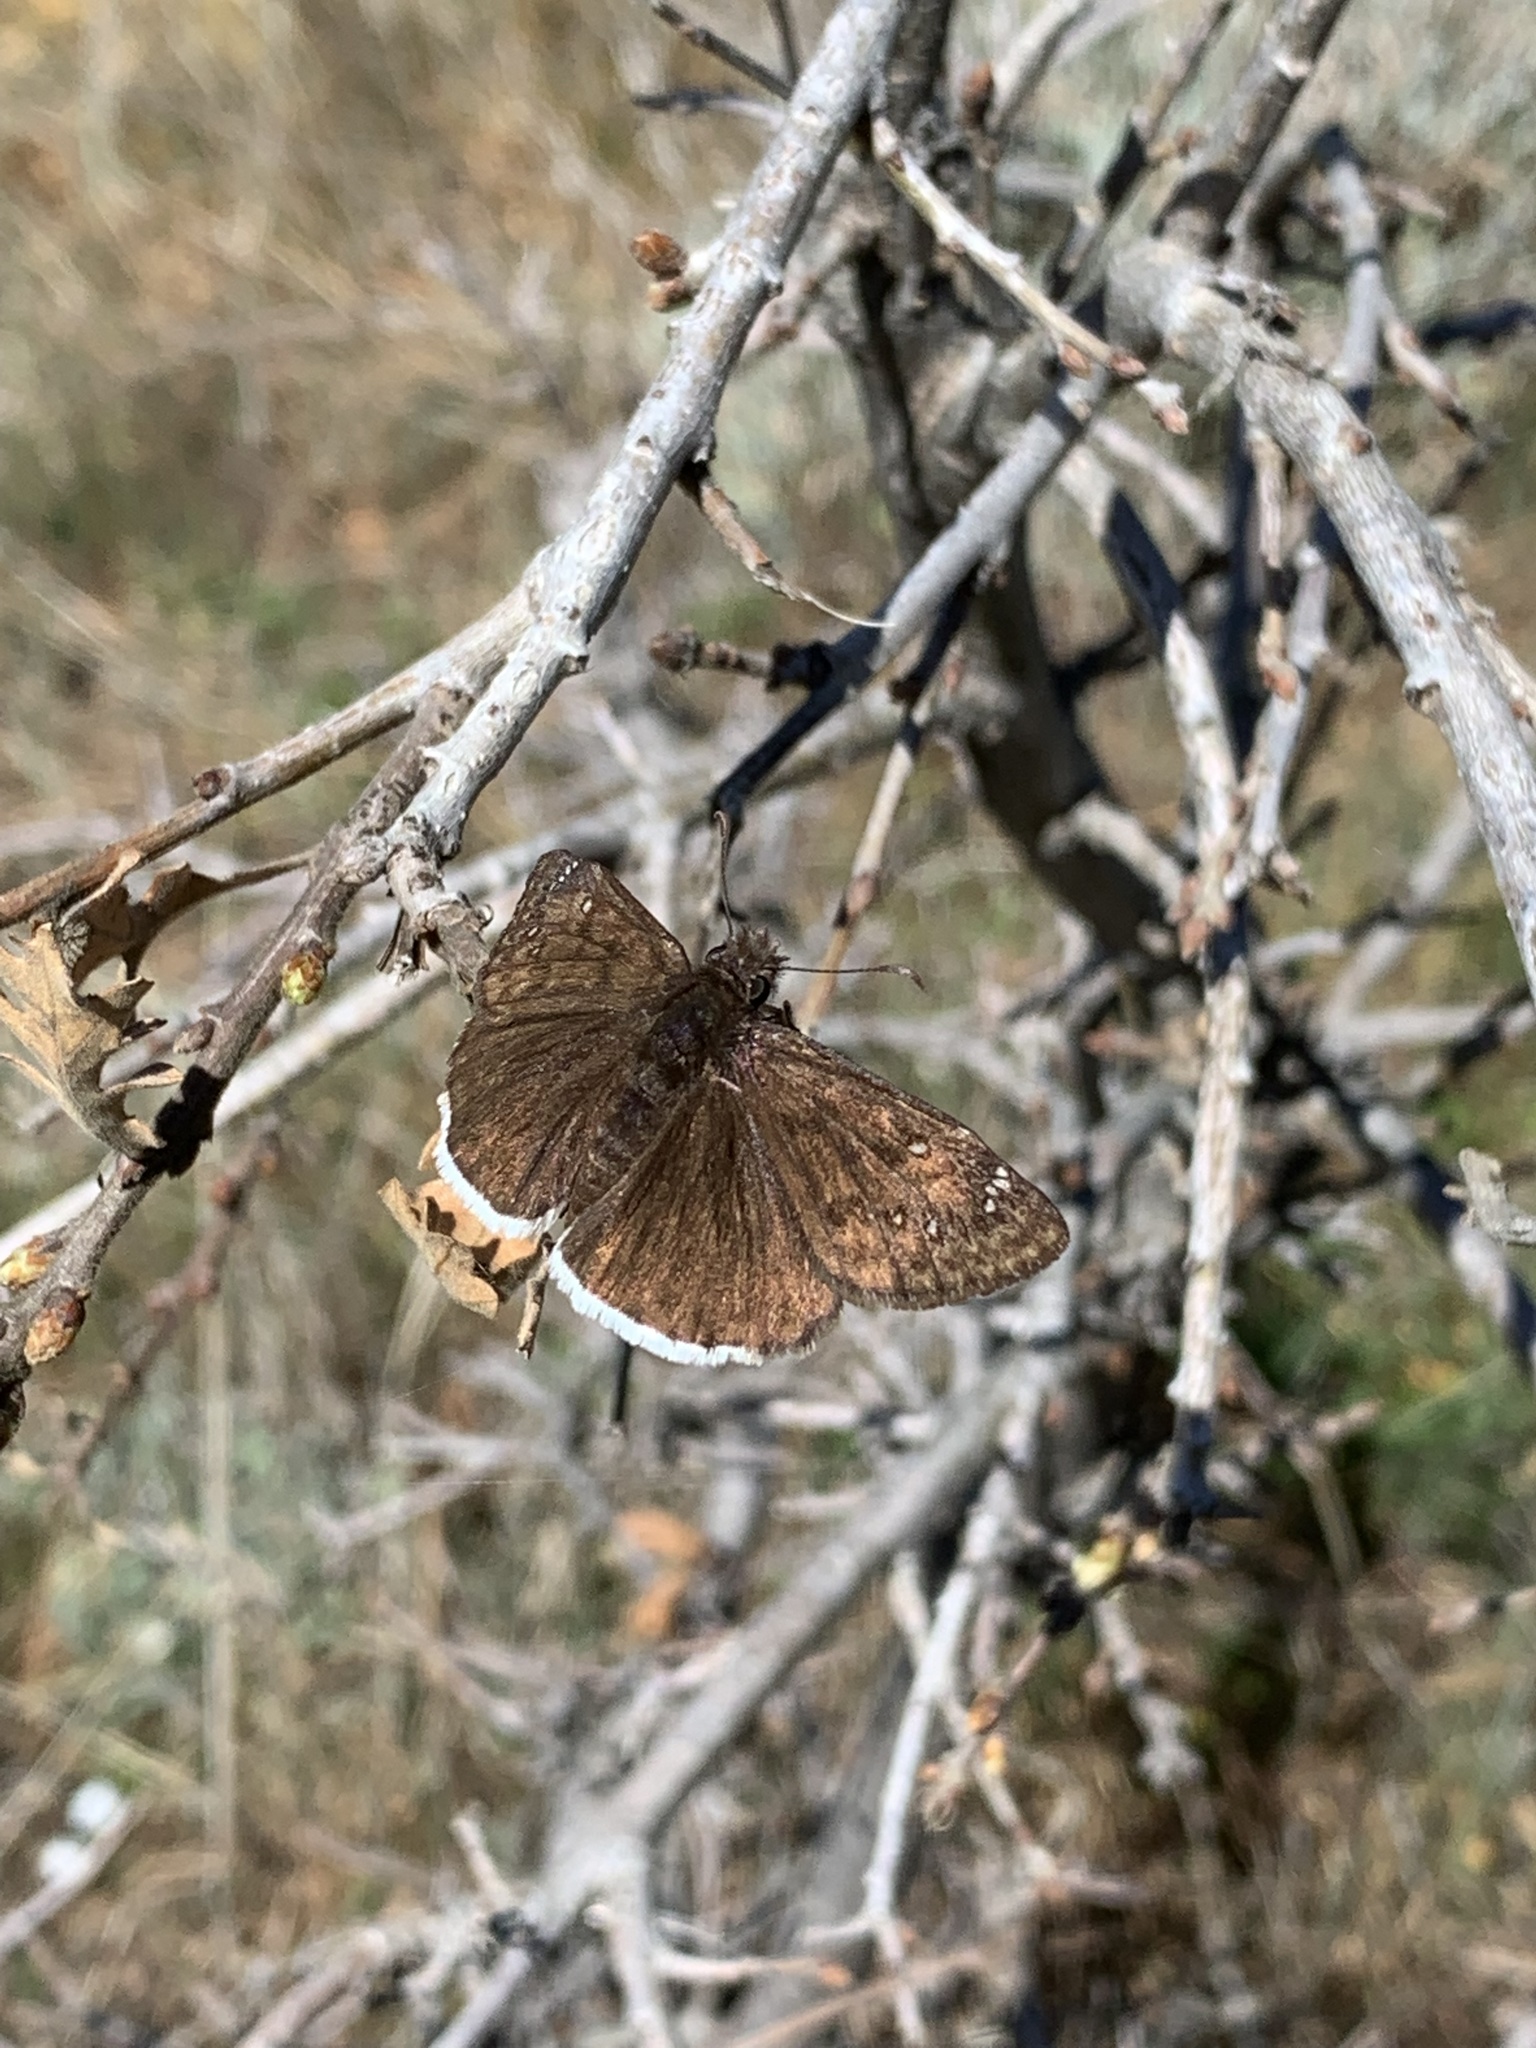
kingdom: Animalia
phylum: Arthropoda
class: Insecta
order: Lepidoptera
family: Hesperiidae
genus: Erynnis
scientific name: Erynnis tristis
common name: Mournful duskywing
